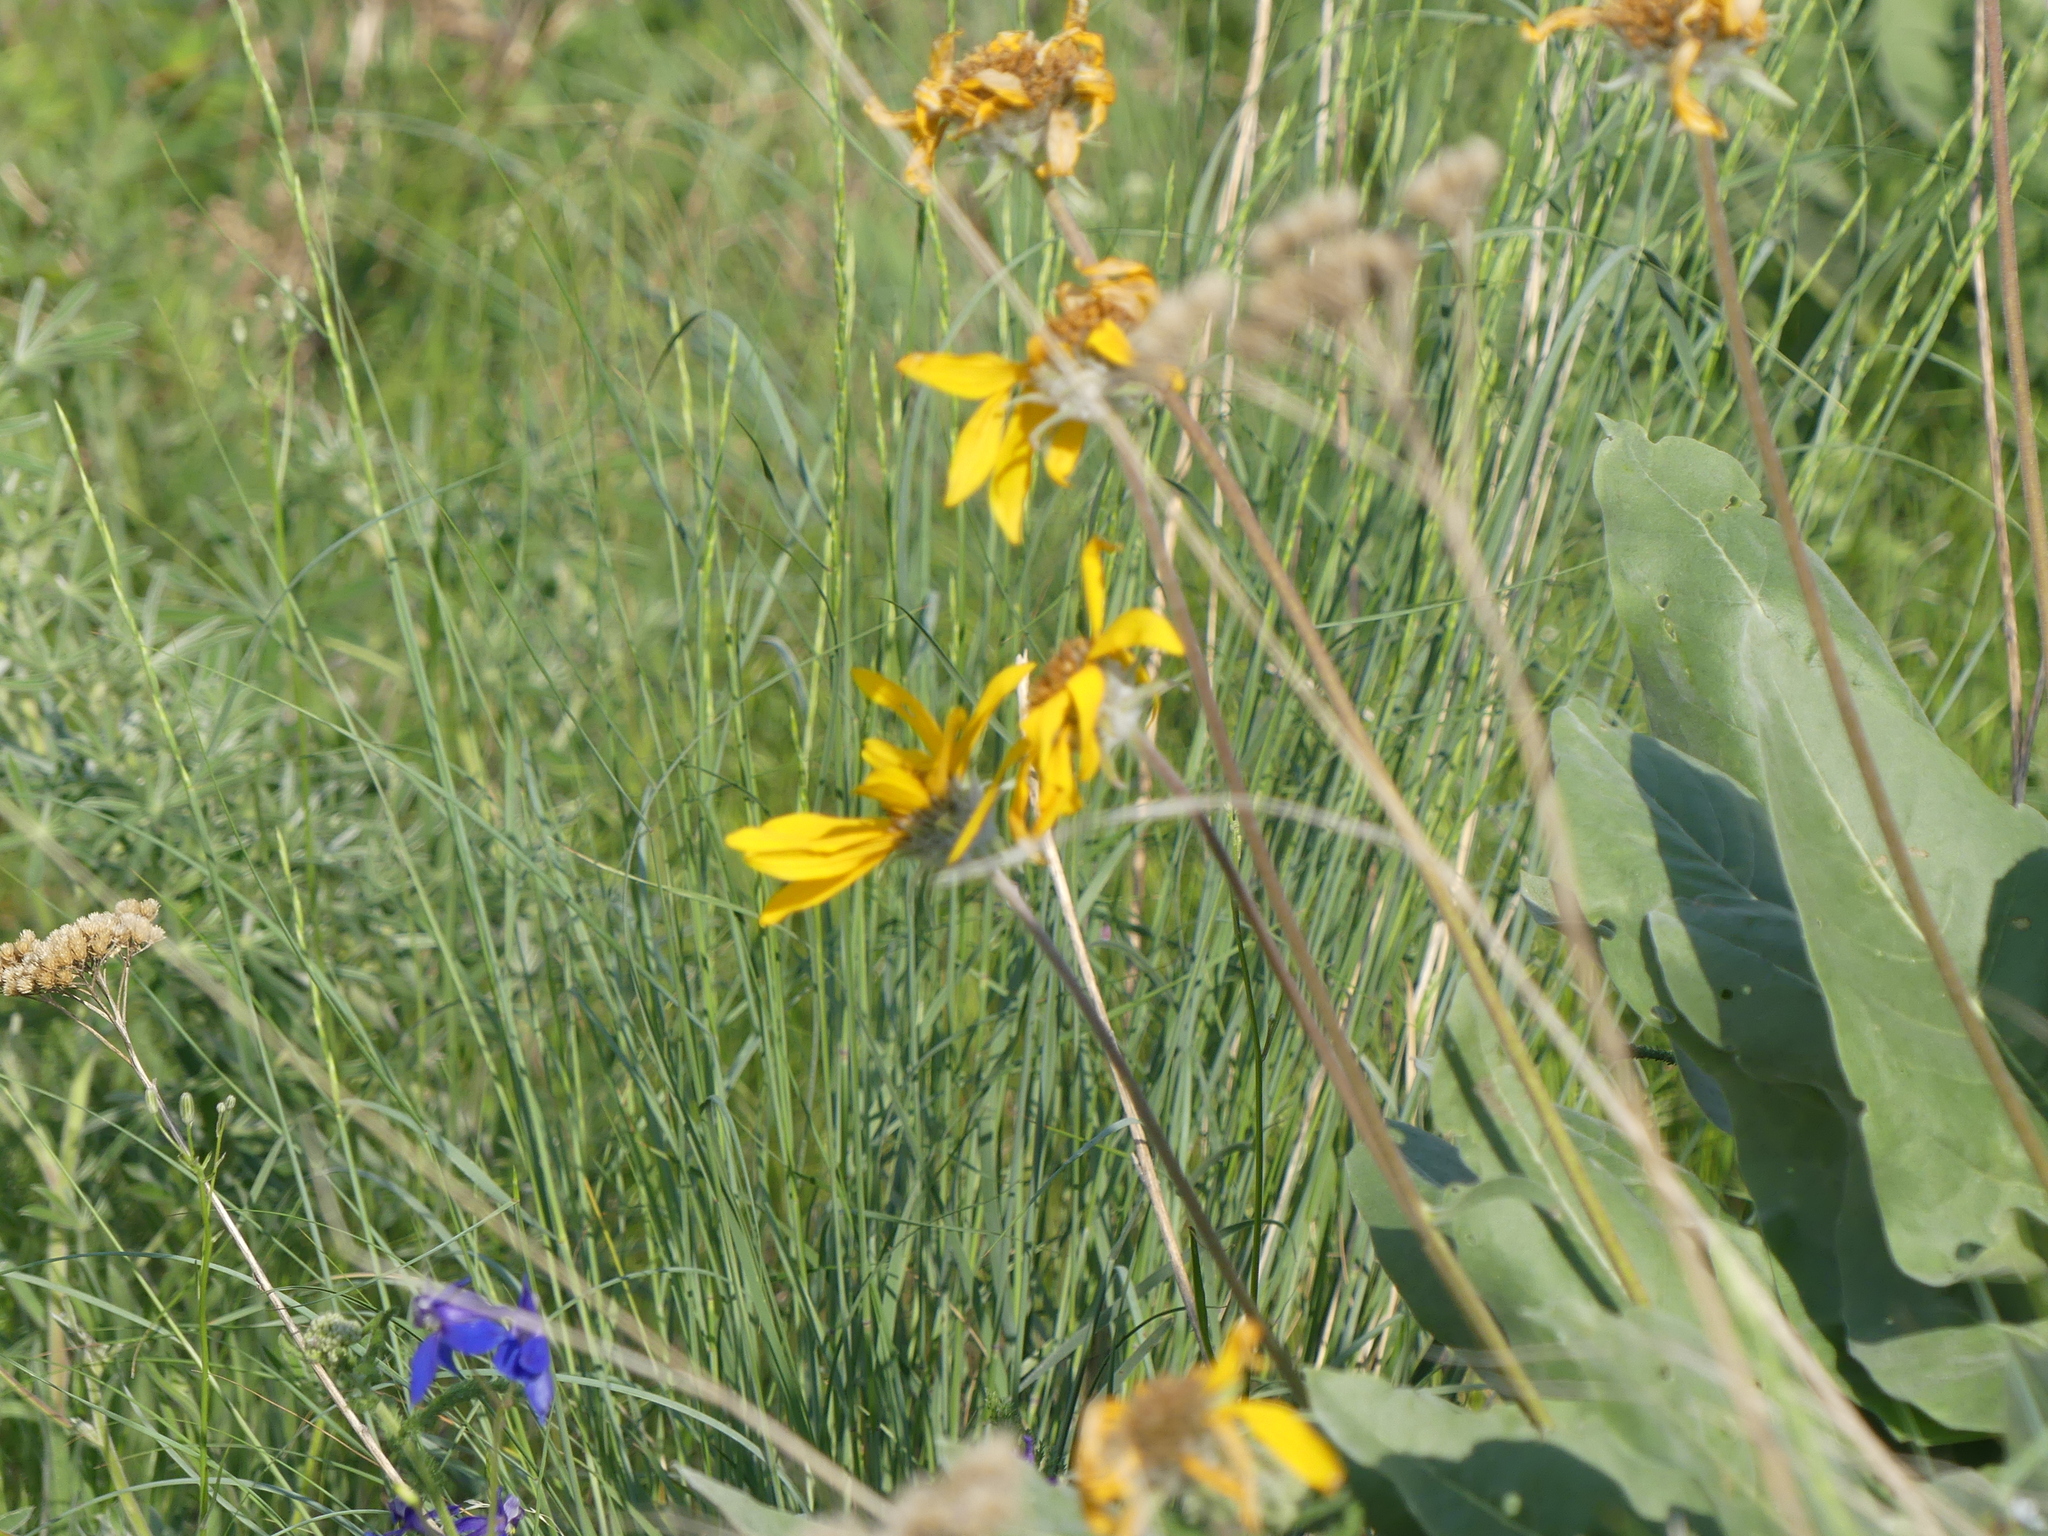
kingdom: Plantae
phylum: Tracheophyta
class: Magnoliopsida
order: Asterales
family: Asteraceae
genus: Wyethia
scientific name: Wyethia sagittata
